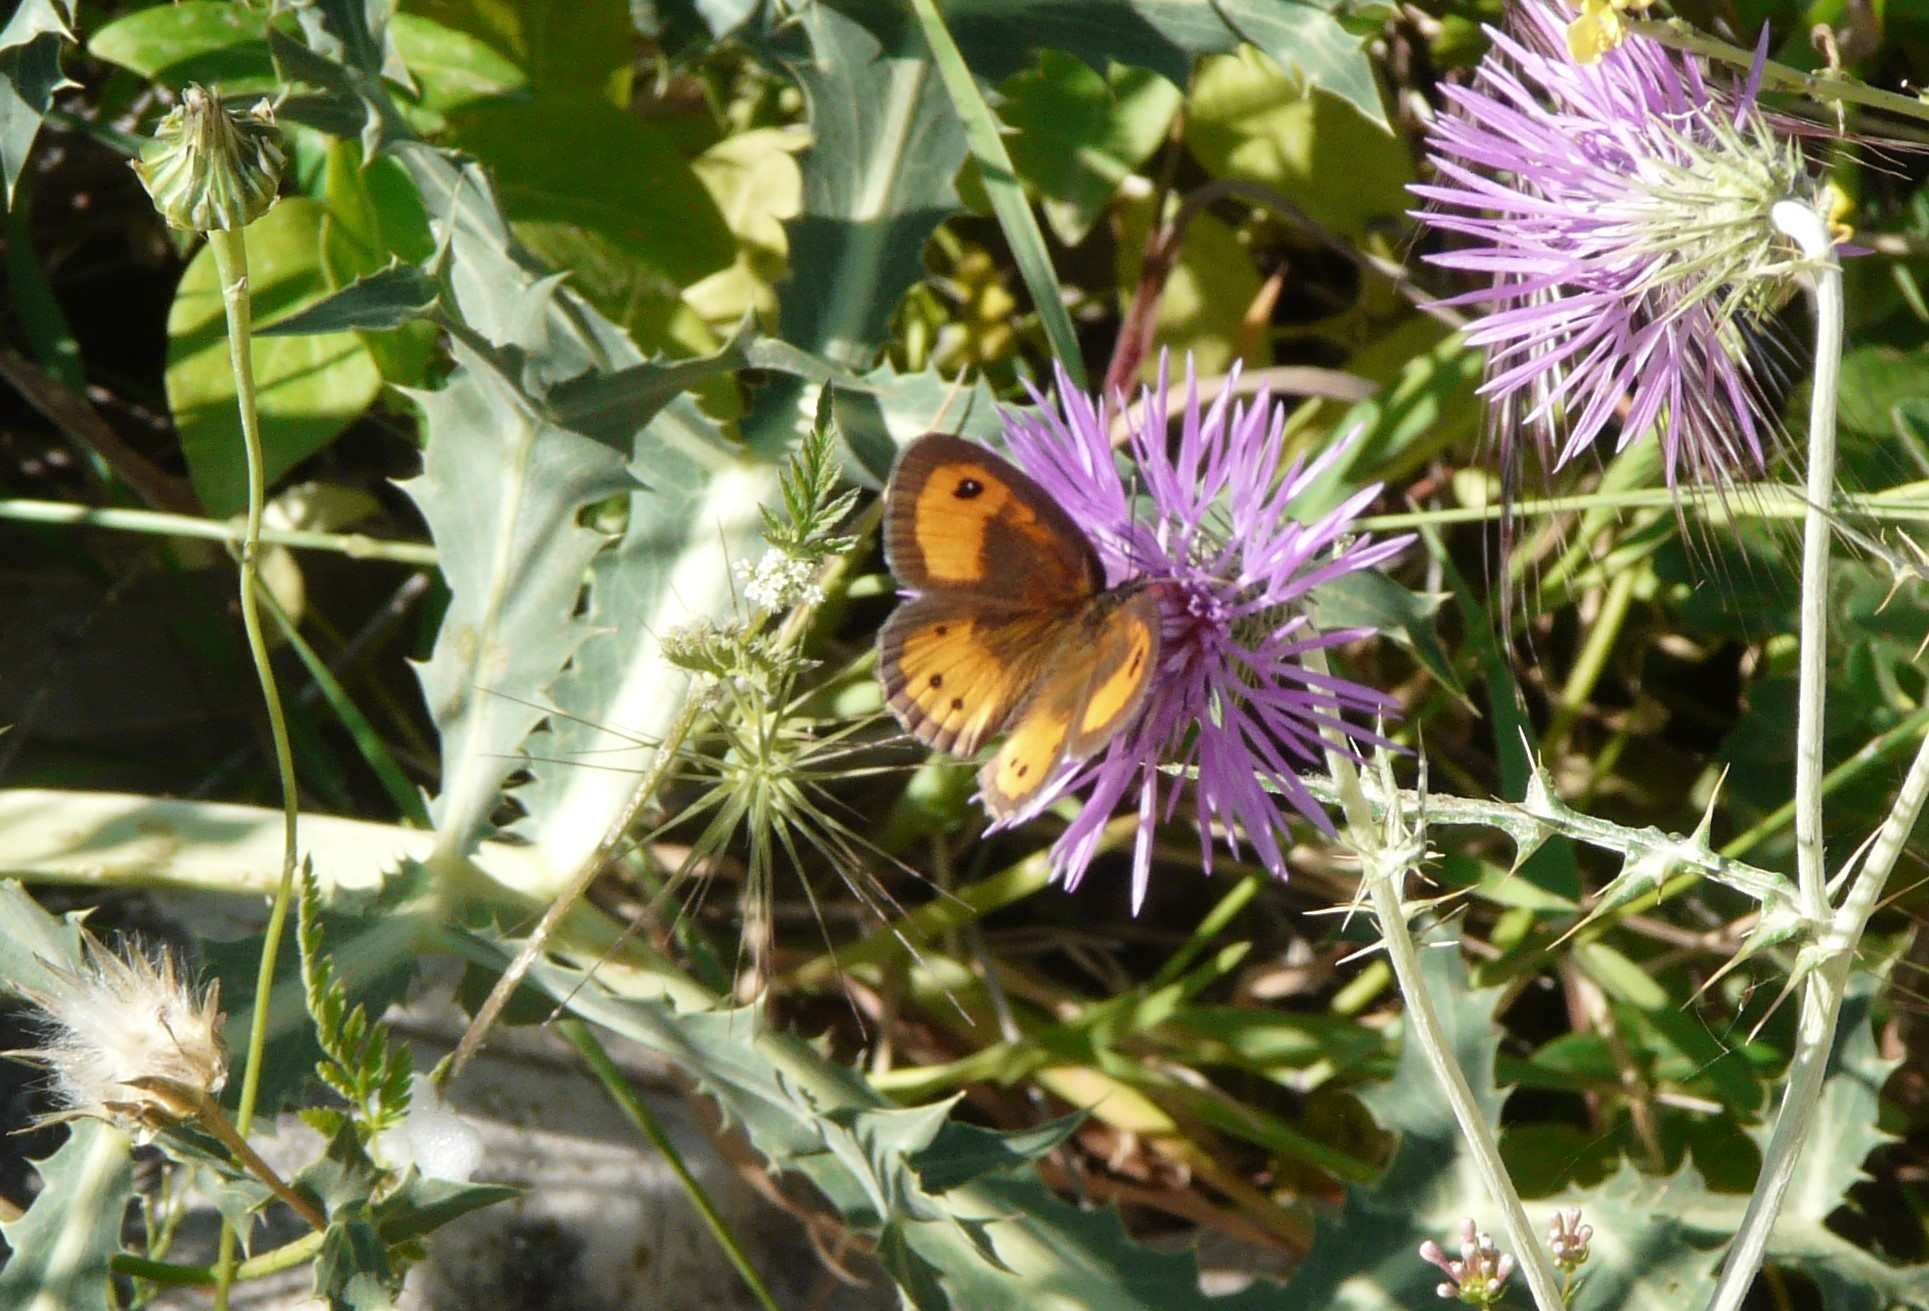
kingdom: Animalia
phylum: Arthropoda
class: Insecta
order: Lepidoptera
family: Nymphalidae
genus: Pyronia
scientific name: Pyronia bathseba
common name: Spanish gatekeeper
